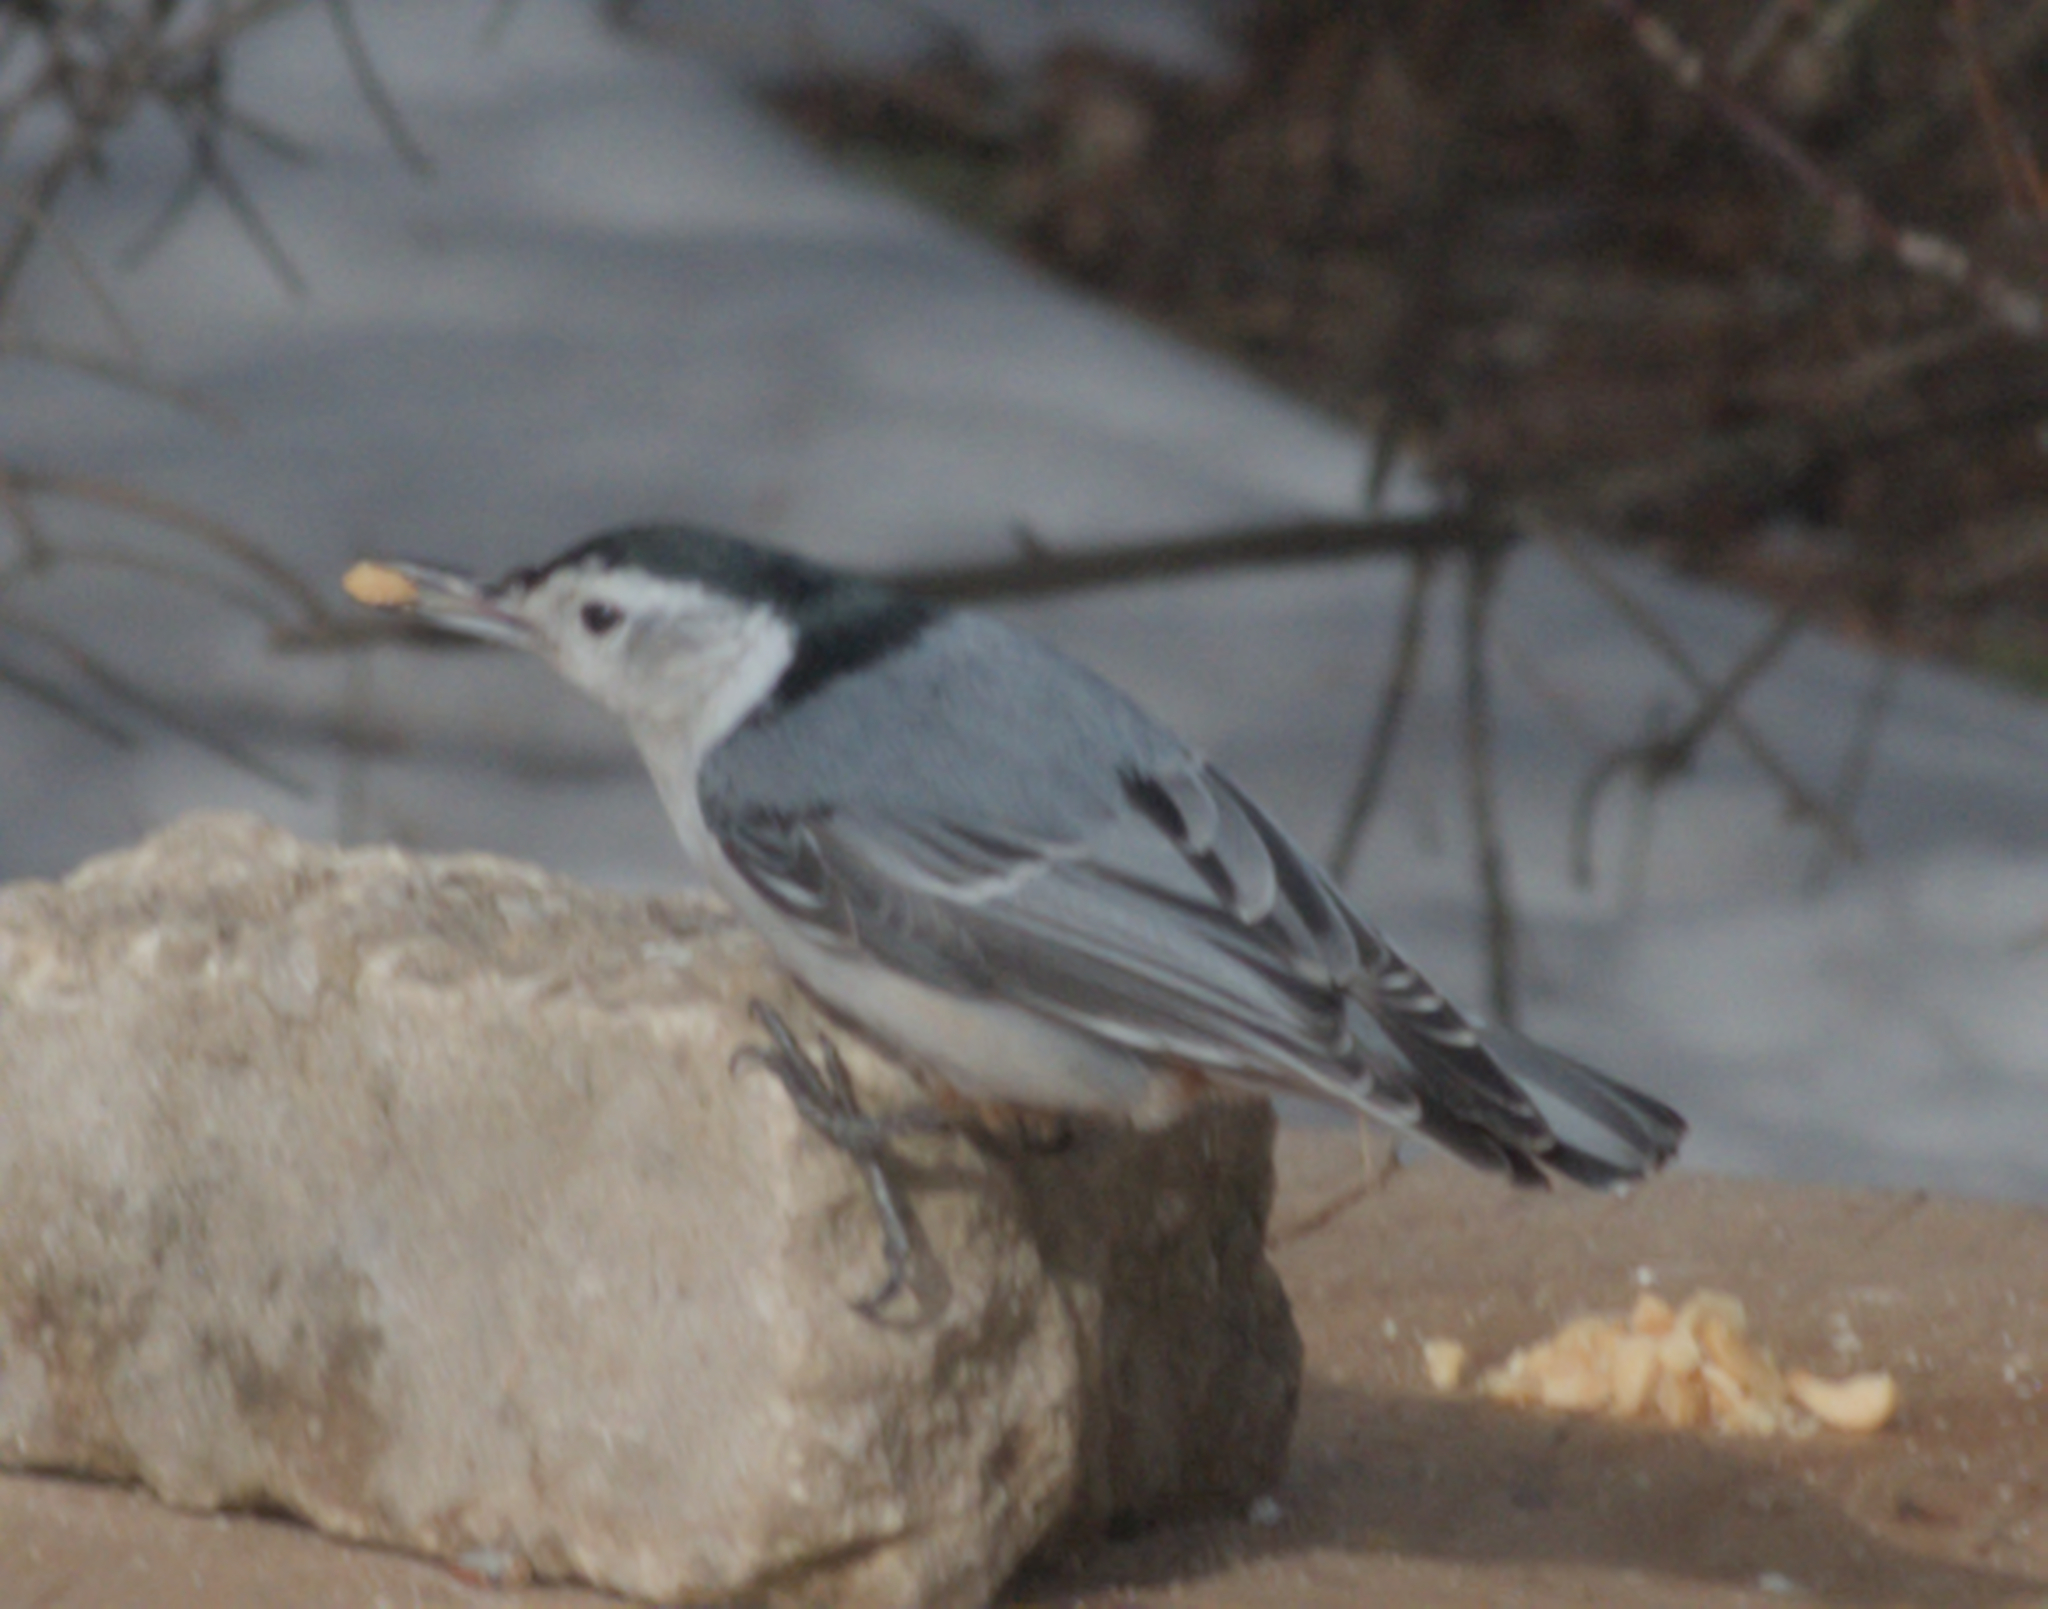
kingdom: Animalia
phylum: Chordata
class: Aves
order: Passeriformes
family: Sittidae
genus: Sitta
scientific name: Sitta carolinensis
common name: White-breasted nuthatch
